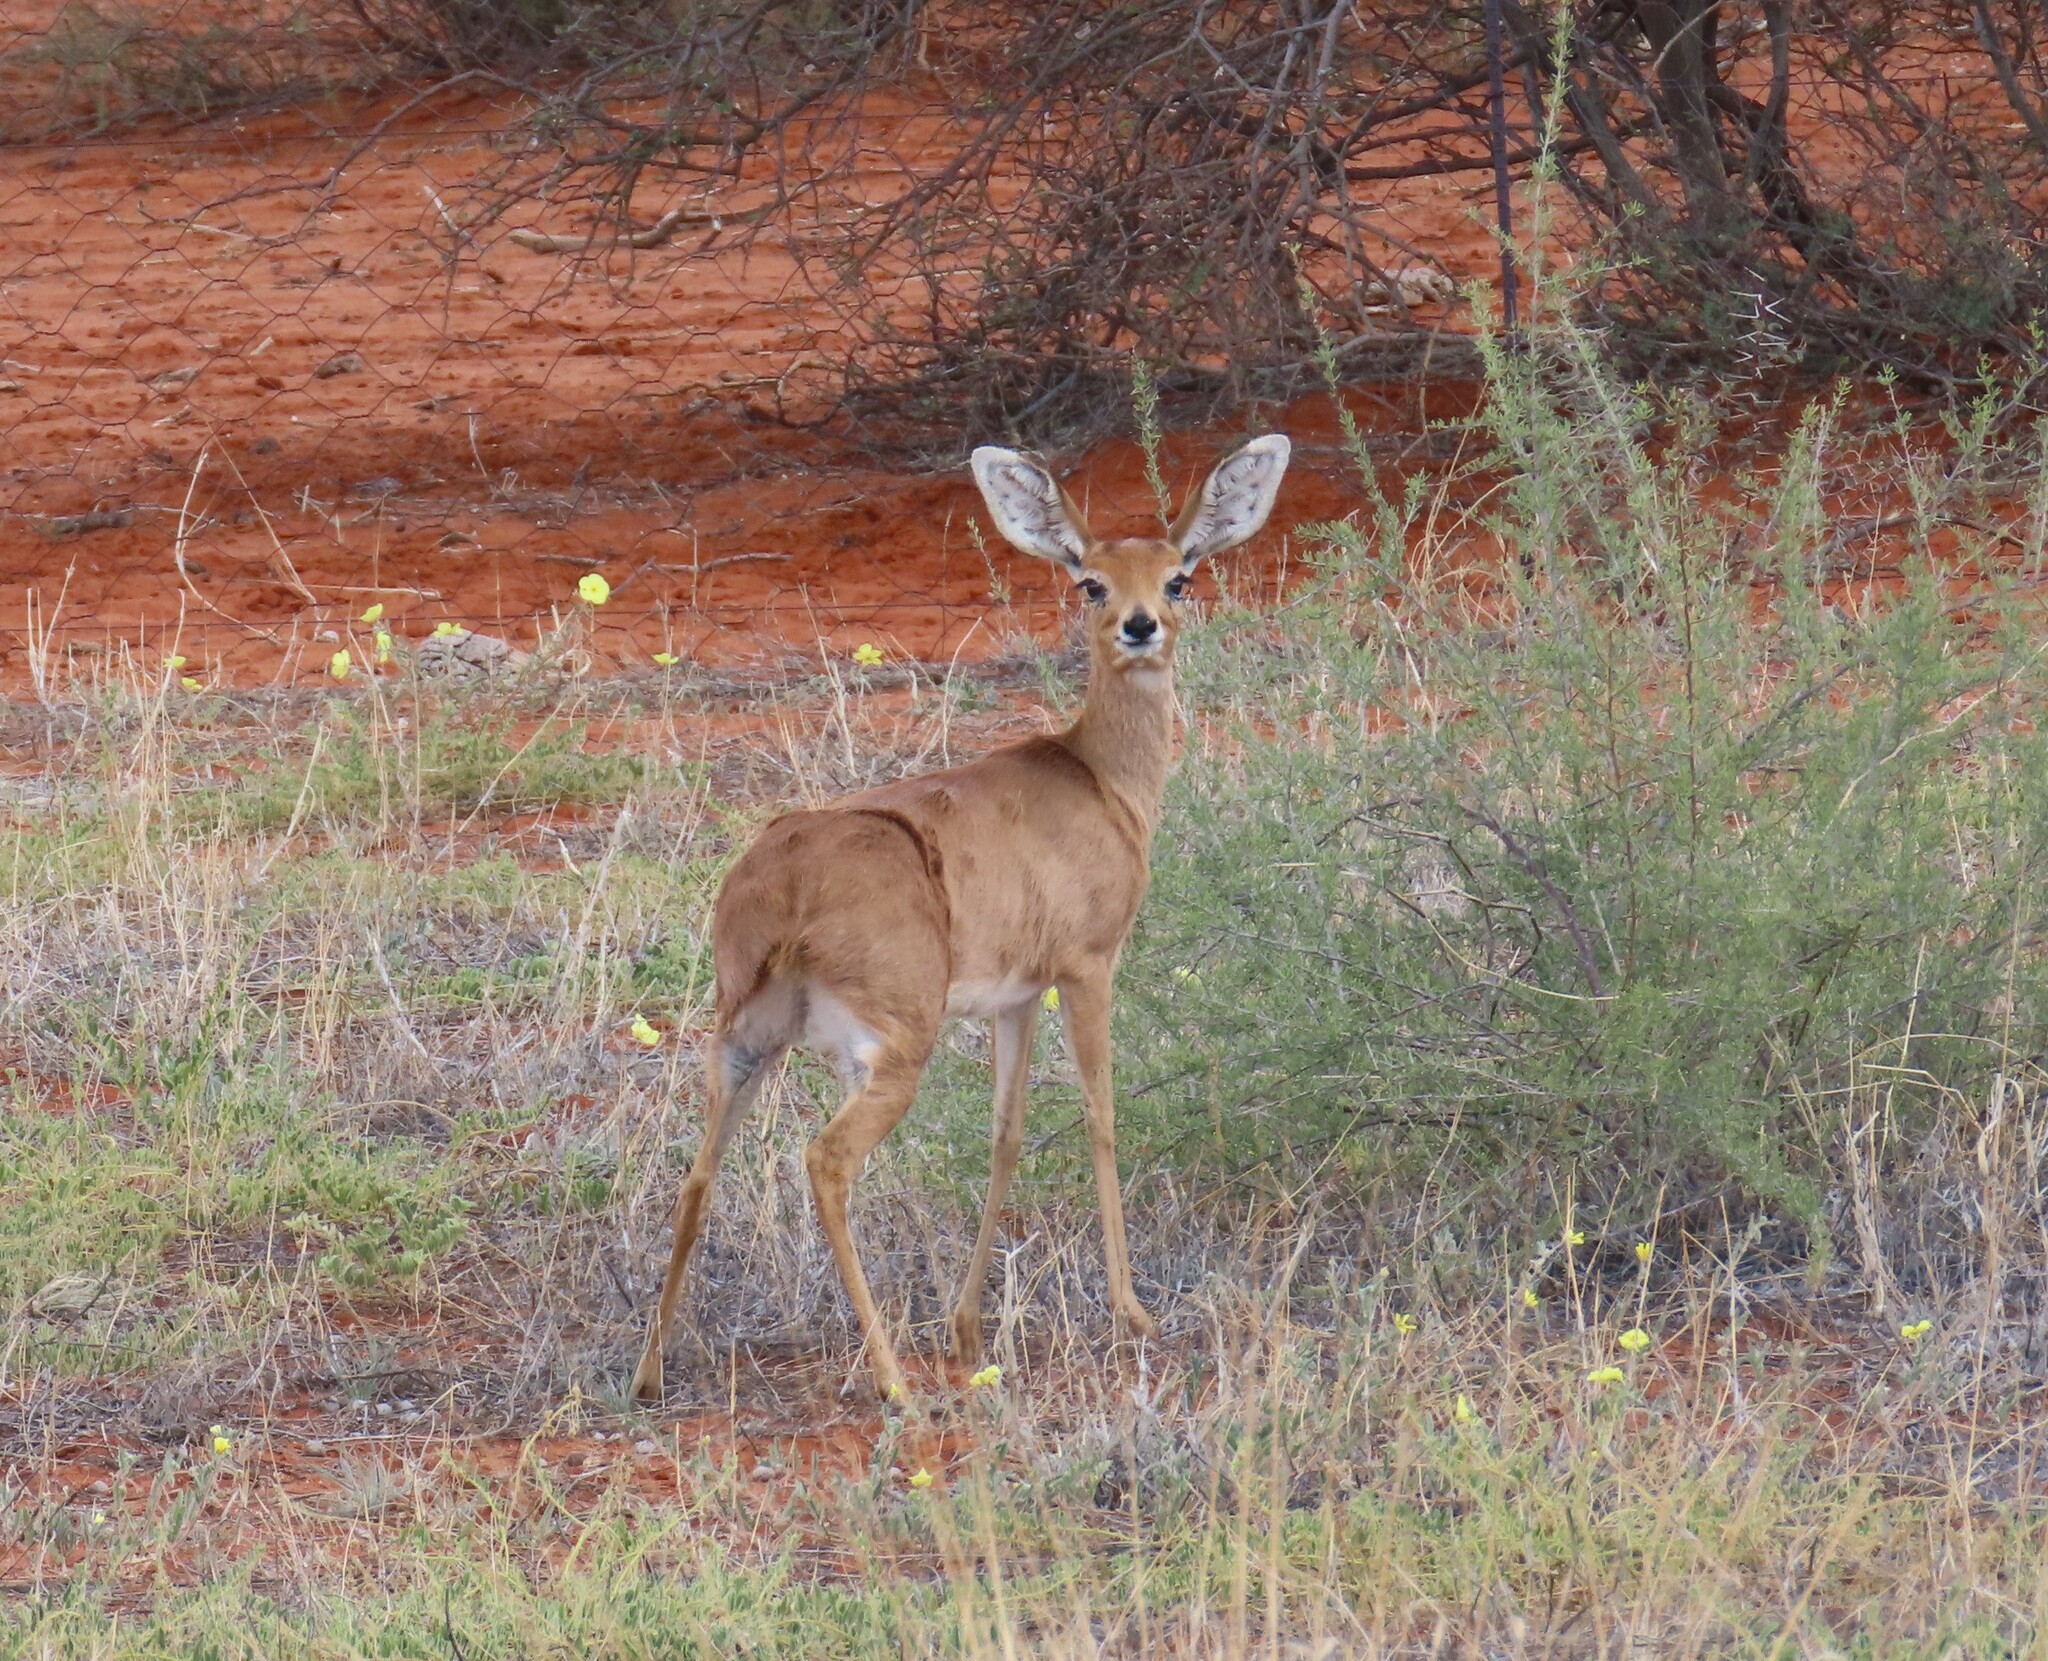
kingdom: Animalia
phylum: Chordata
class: Mammalia
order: Artiodactyla
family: Bovidae
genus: Raphicerus
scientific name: Raphicerus campestris
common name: Steenbok
